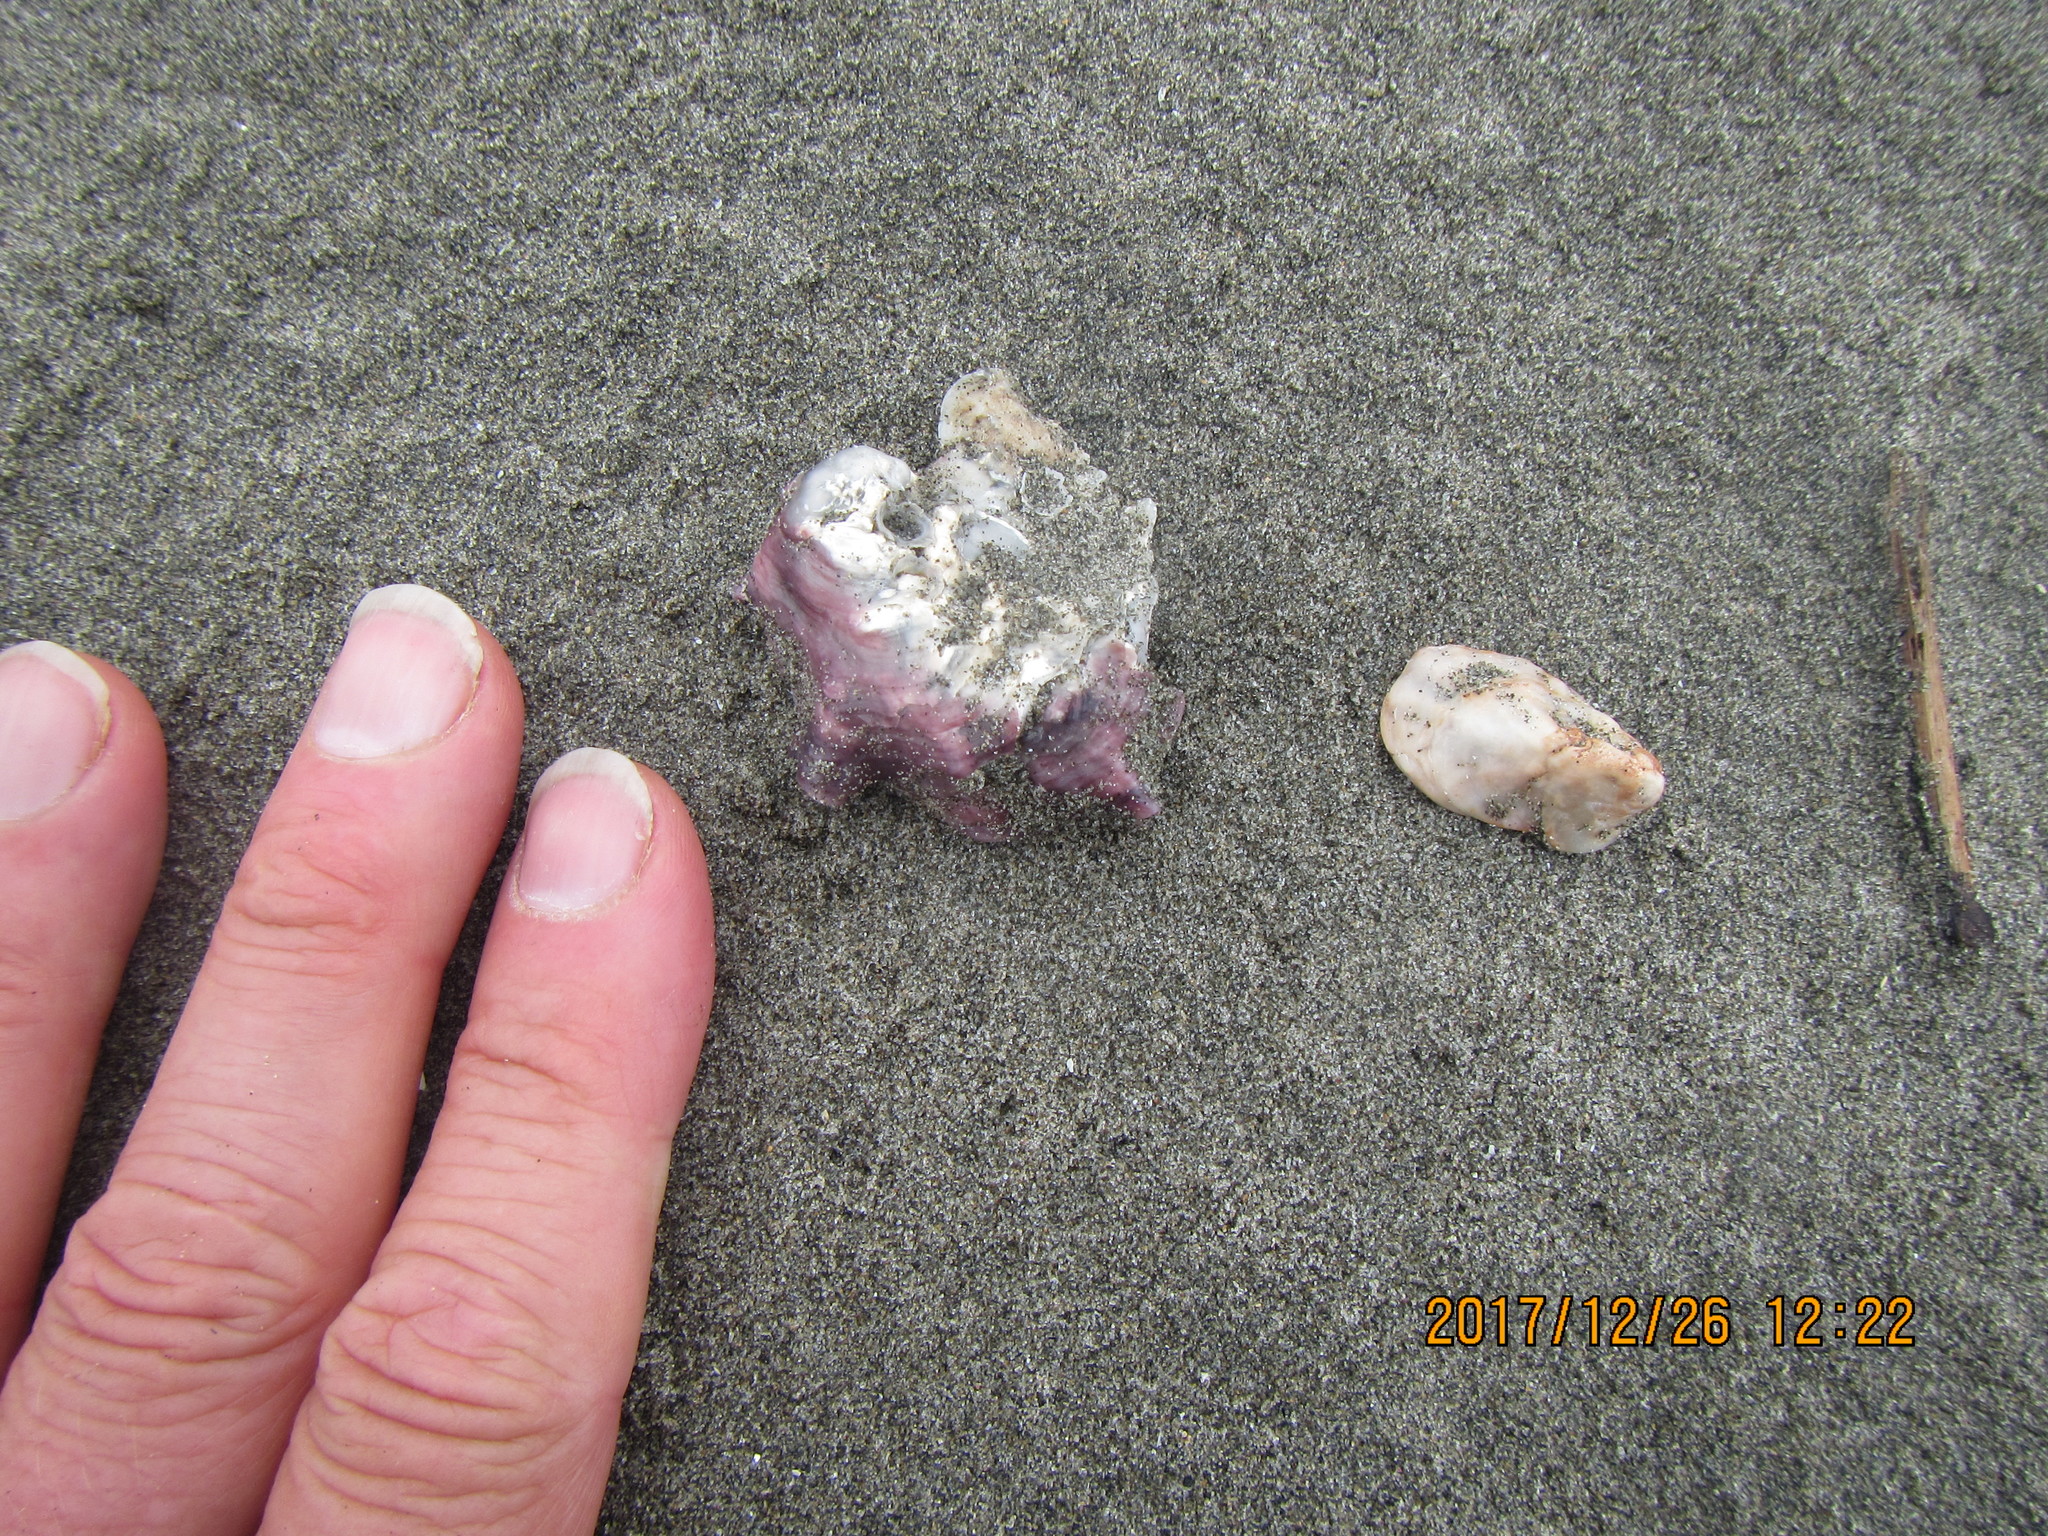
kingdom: Animalia
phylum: Mollusca
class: Bivalvia
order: Ostreida
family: Ostreidae
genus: Magallana
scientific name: Magallana gigas
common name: Pacific oyster
